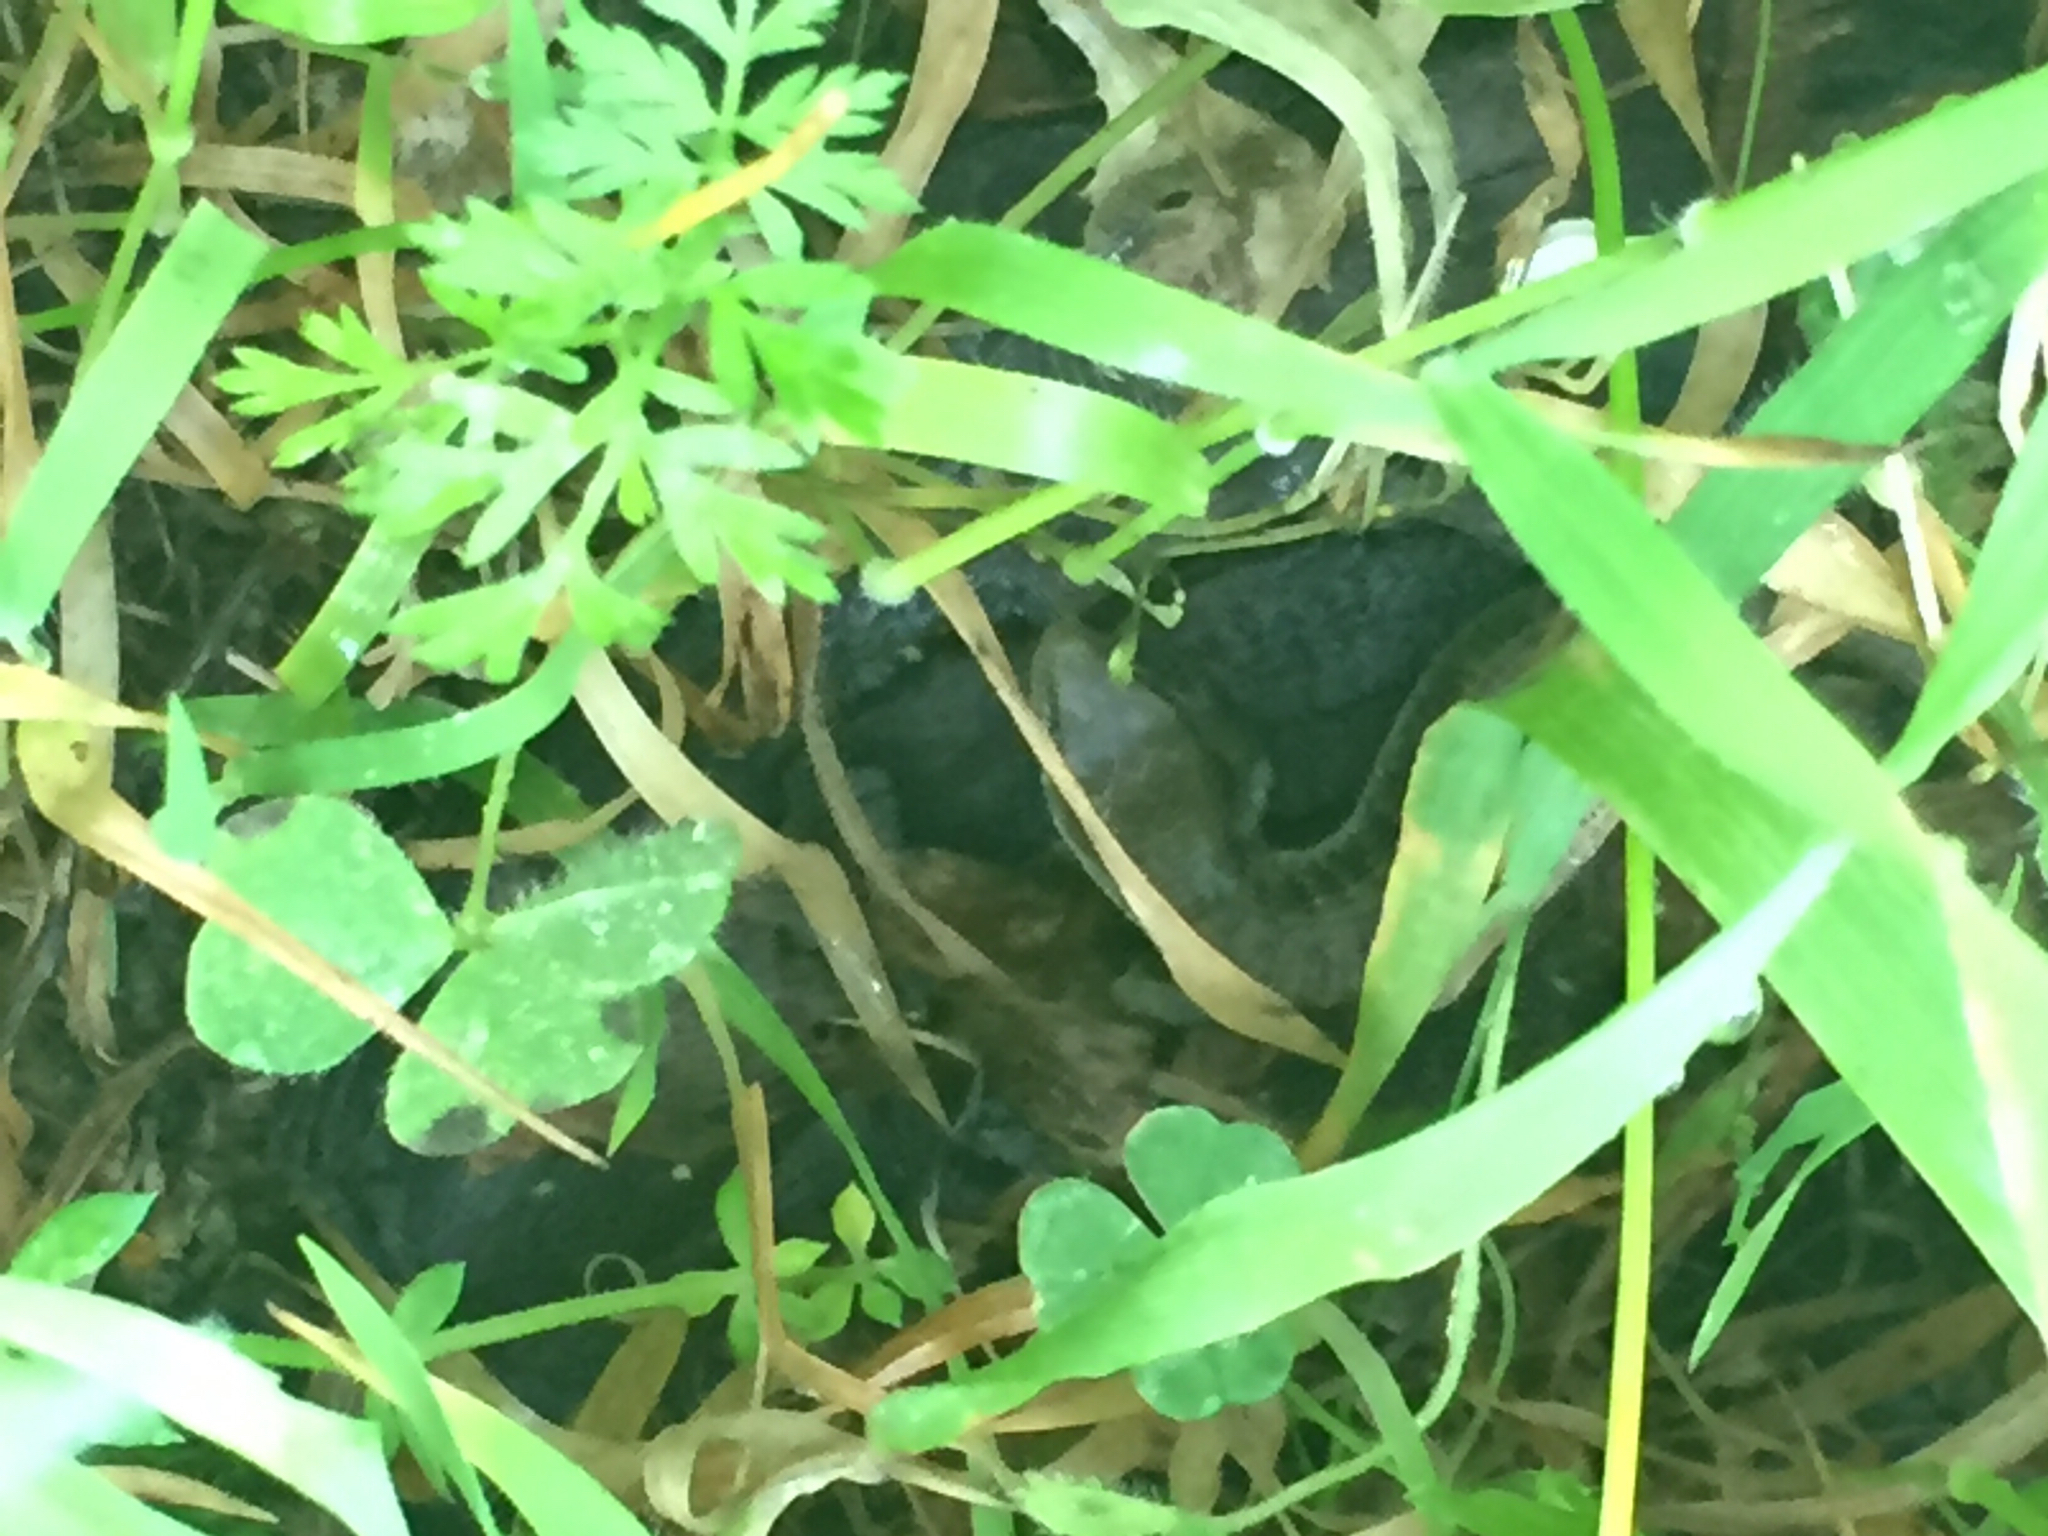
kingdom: Animalia
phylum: Chordata
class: Squamata
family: Anguidae
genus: Elgaria
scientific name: Elgaria multicarinata
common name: Southern alligator lizard
